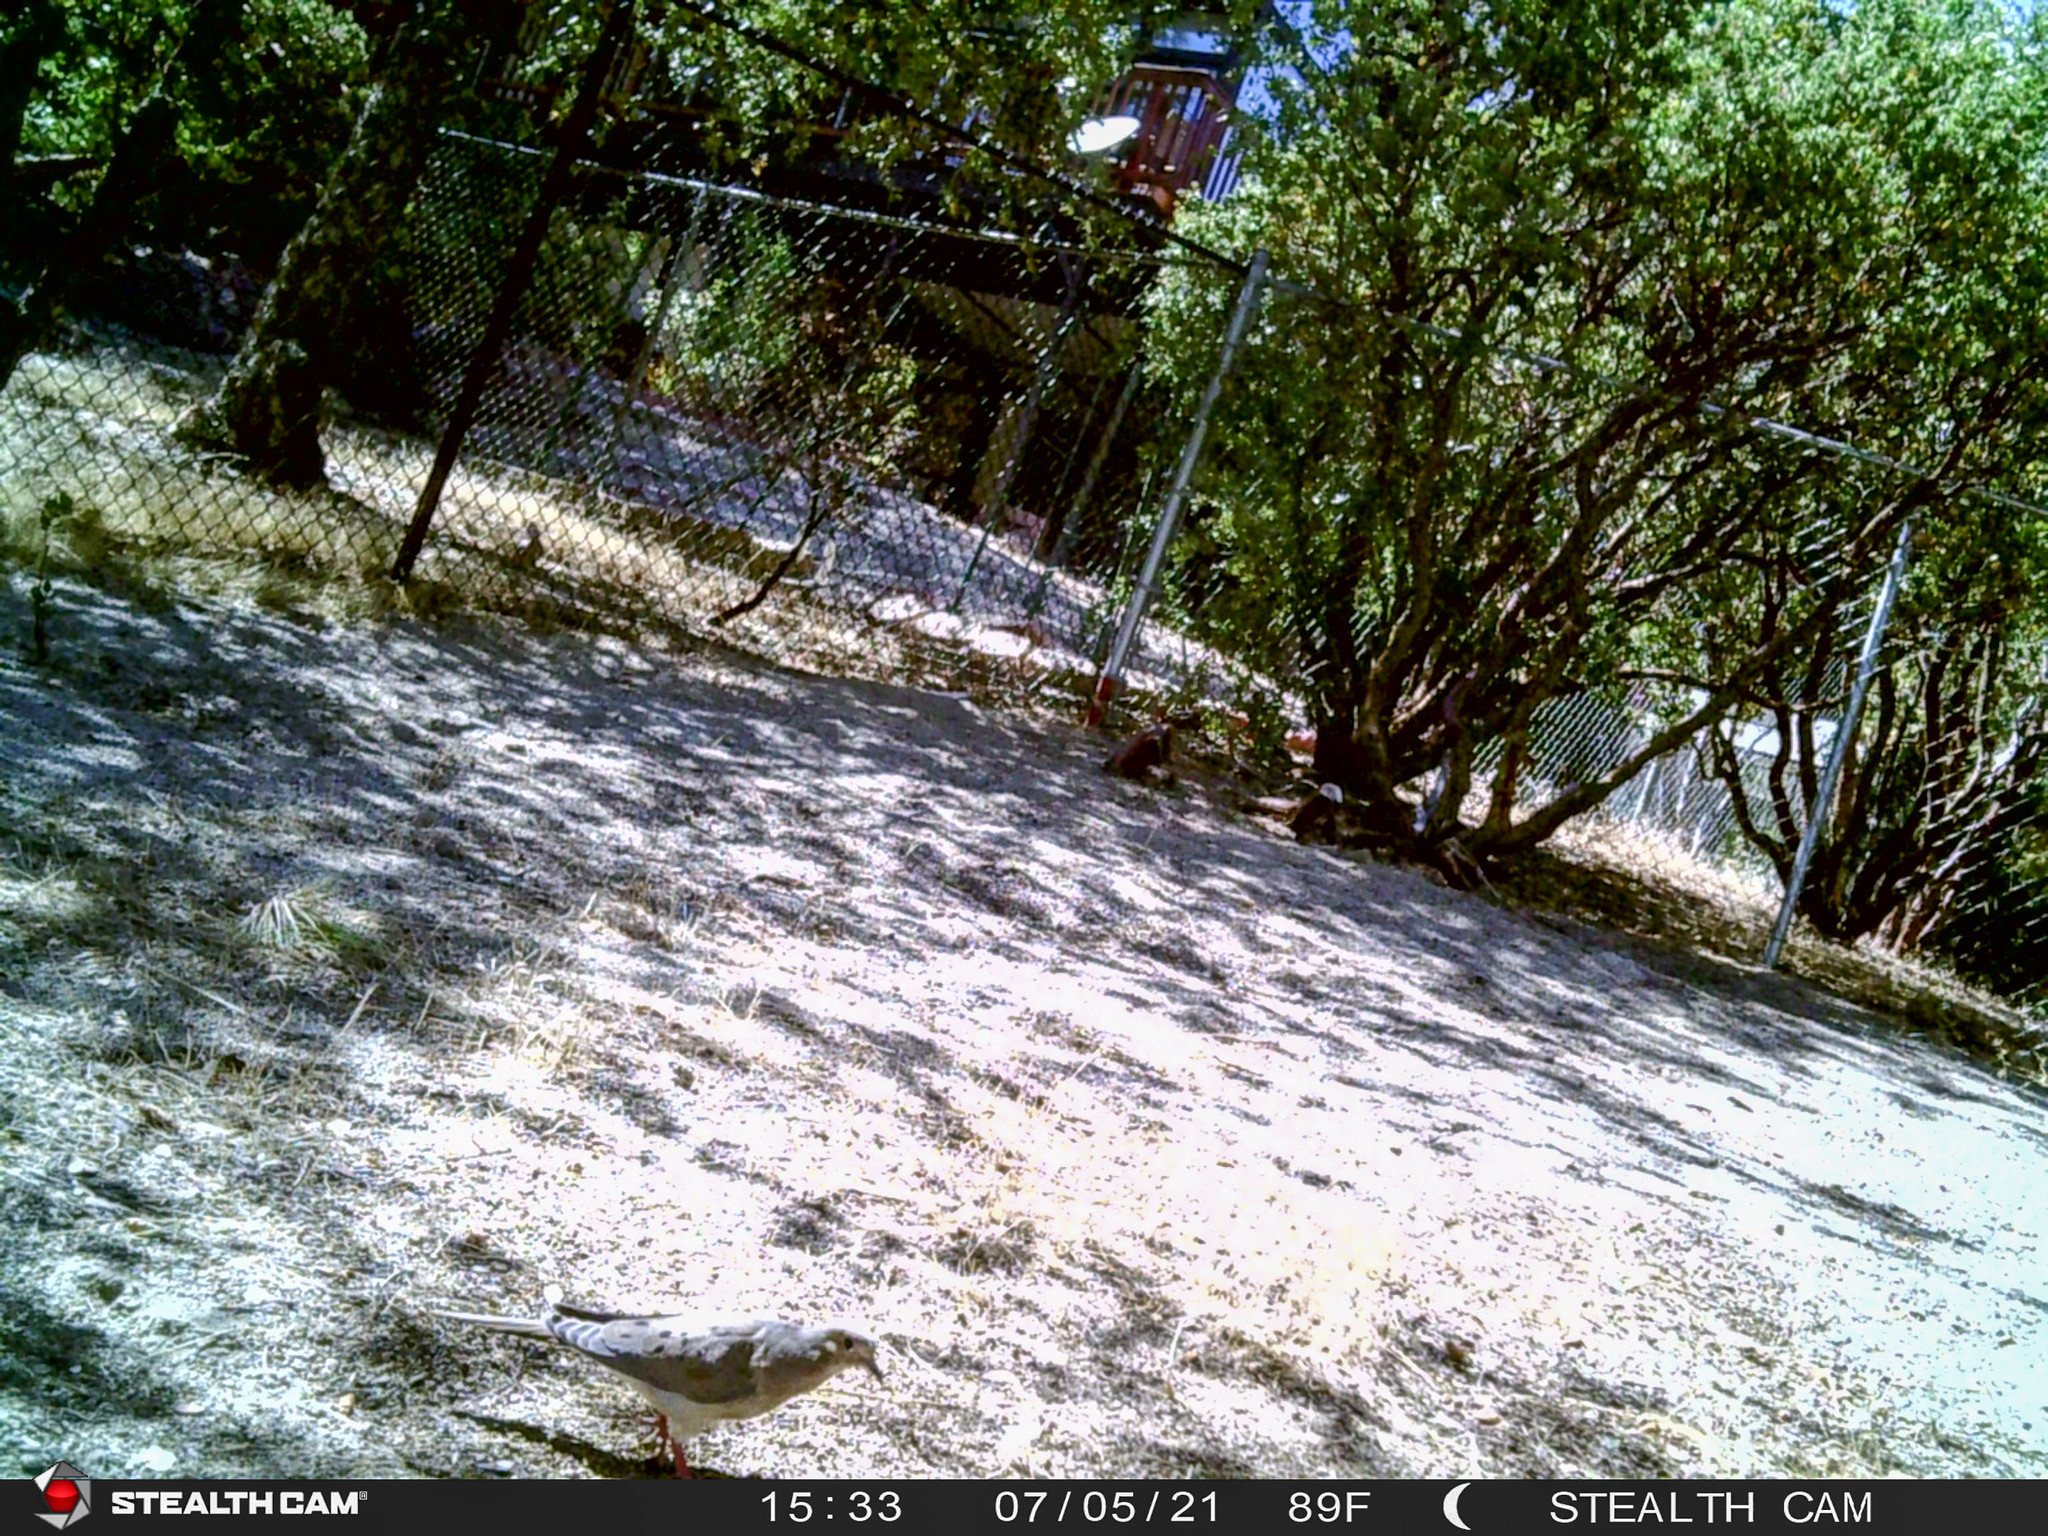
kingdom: Animalia
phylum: Chordata
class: Aves
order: Columbiformes
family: Columbidae
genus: Zenaida
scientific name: Zenaida macroura
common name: Mourning dove
